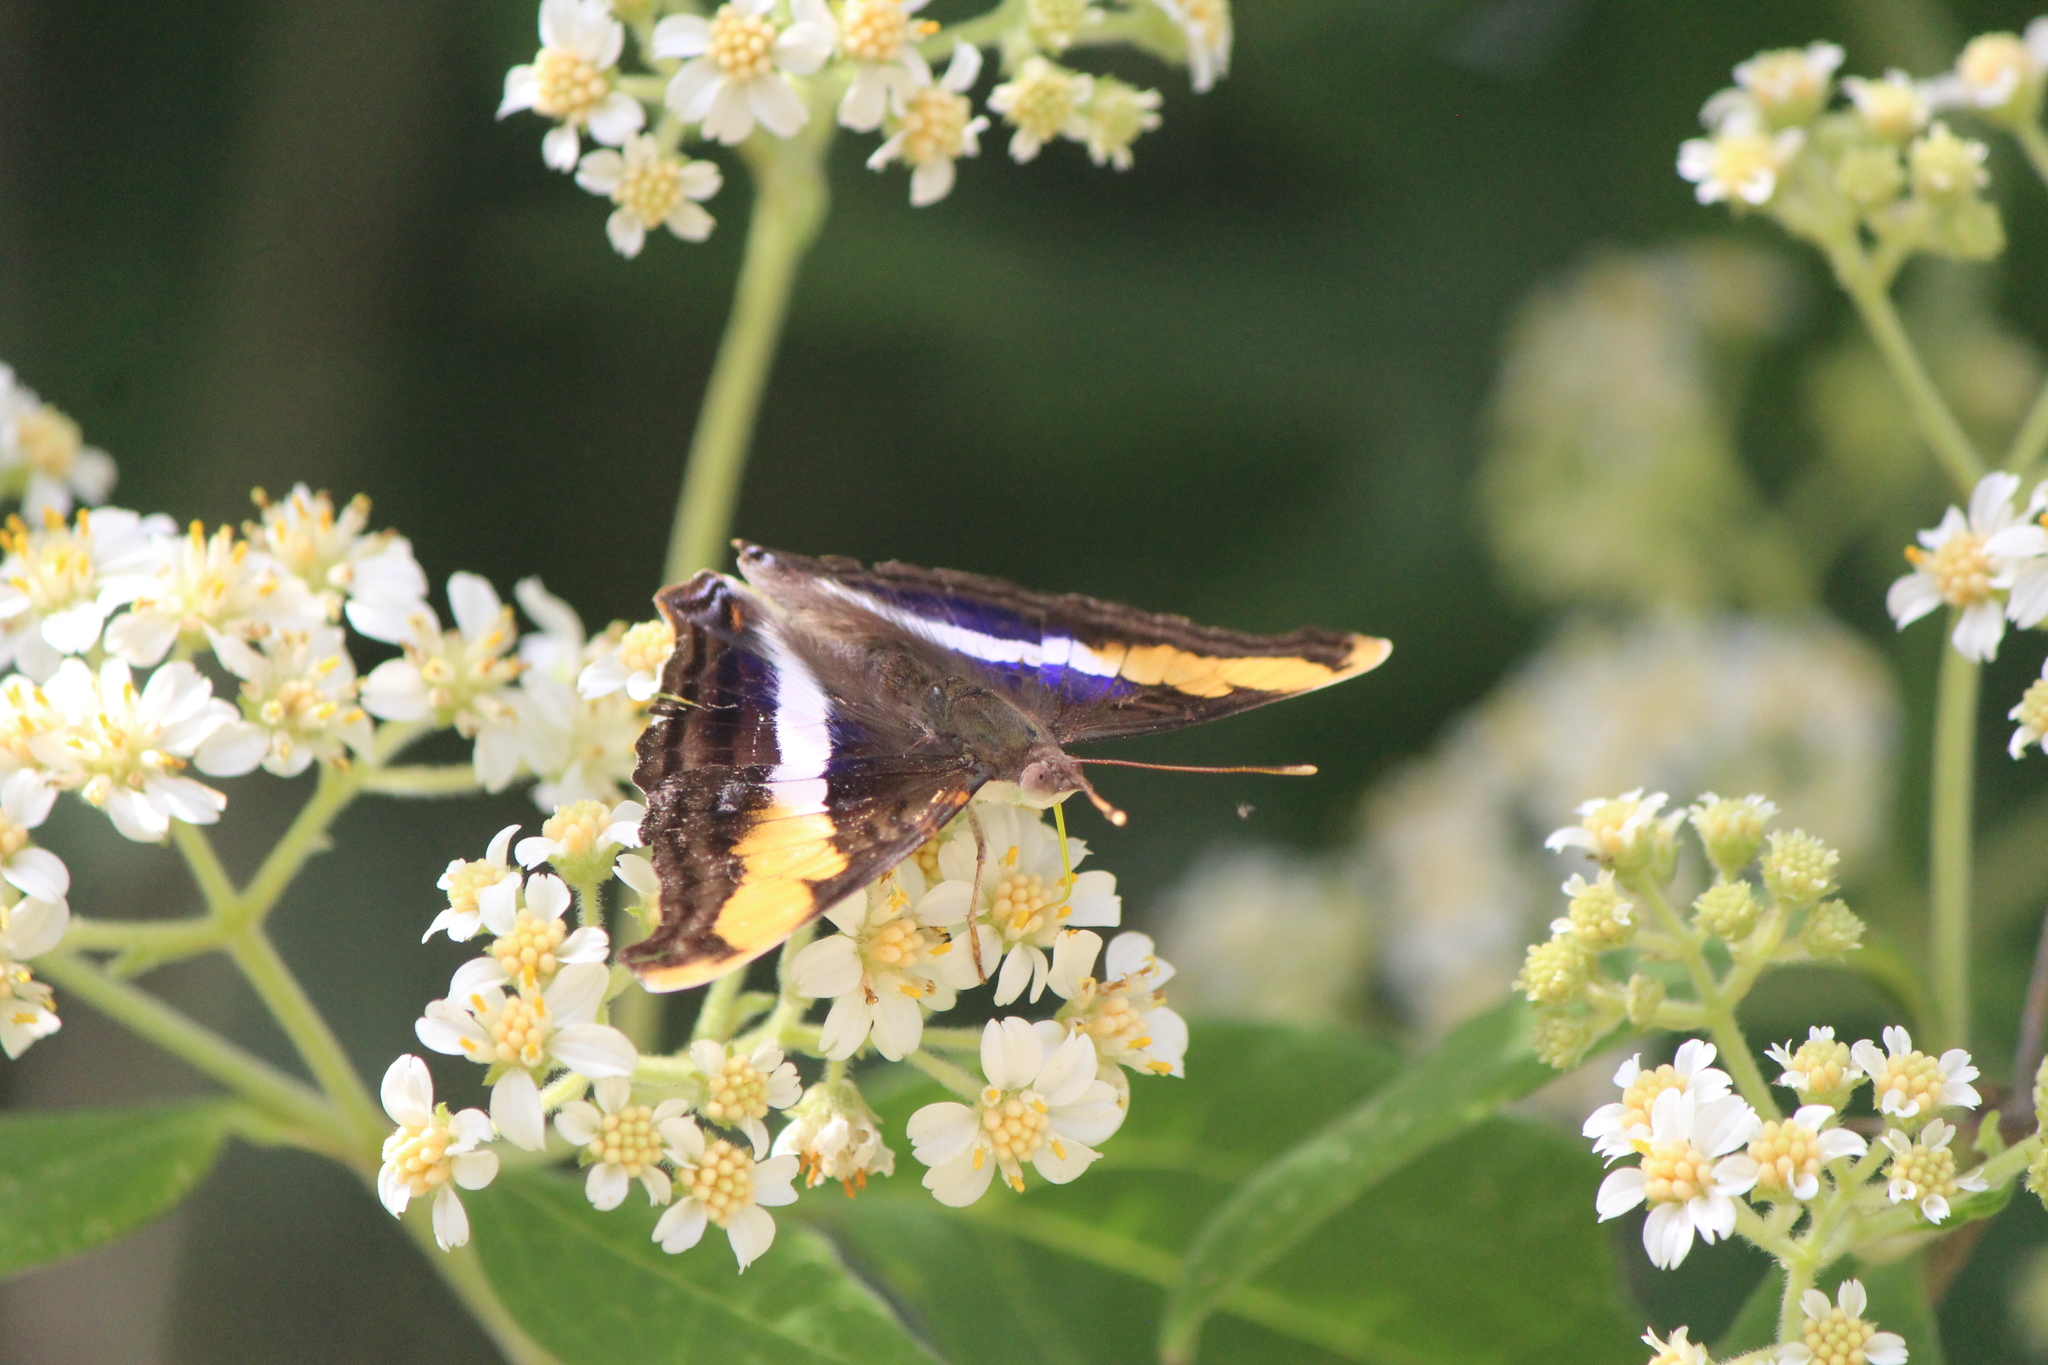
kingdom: Animalia
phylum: Arthropoda
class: Insecta
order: Lepidoptera
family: Nymphalidae
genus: Doxocopa
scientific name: Doxocopa laure
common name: Silver emperor
